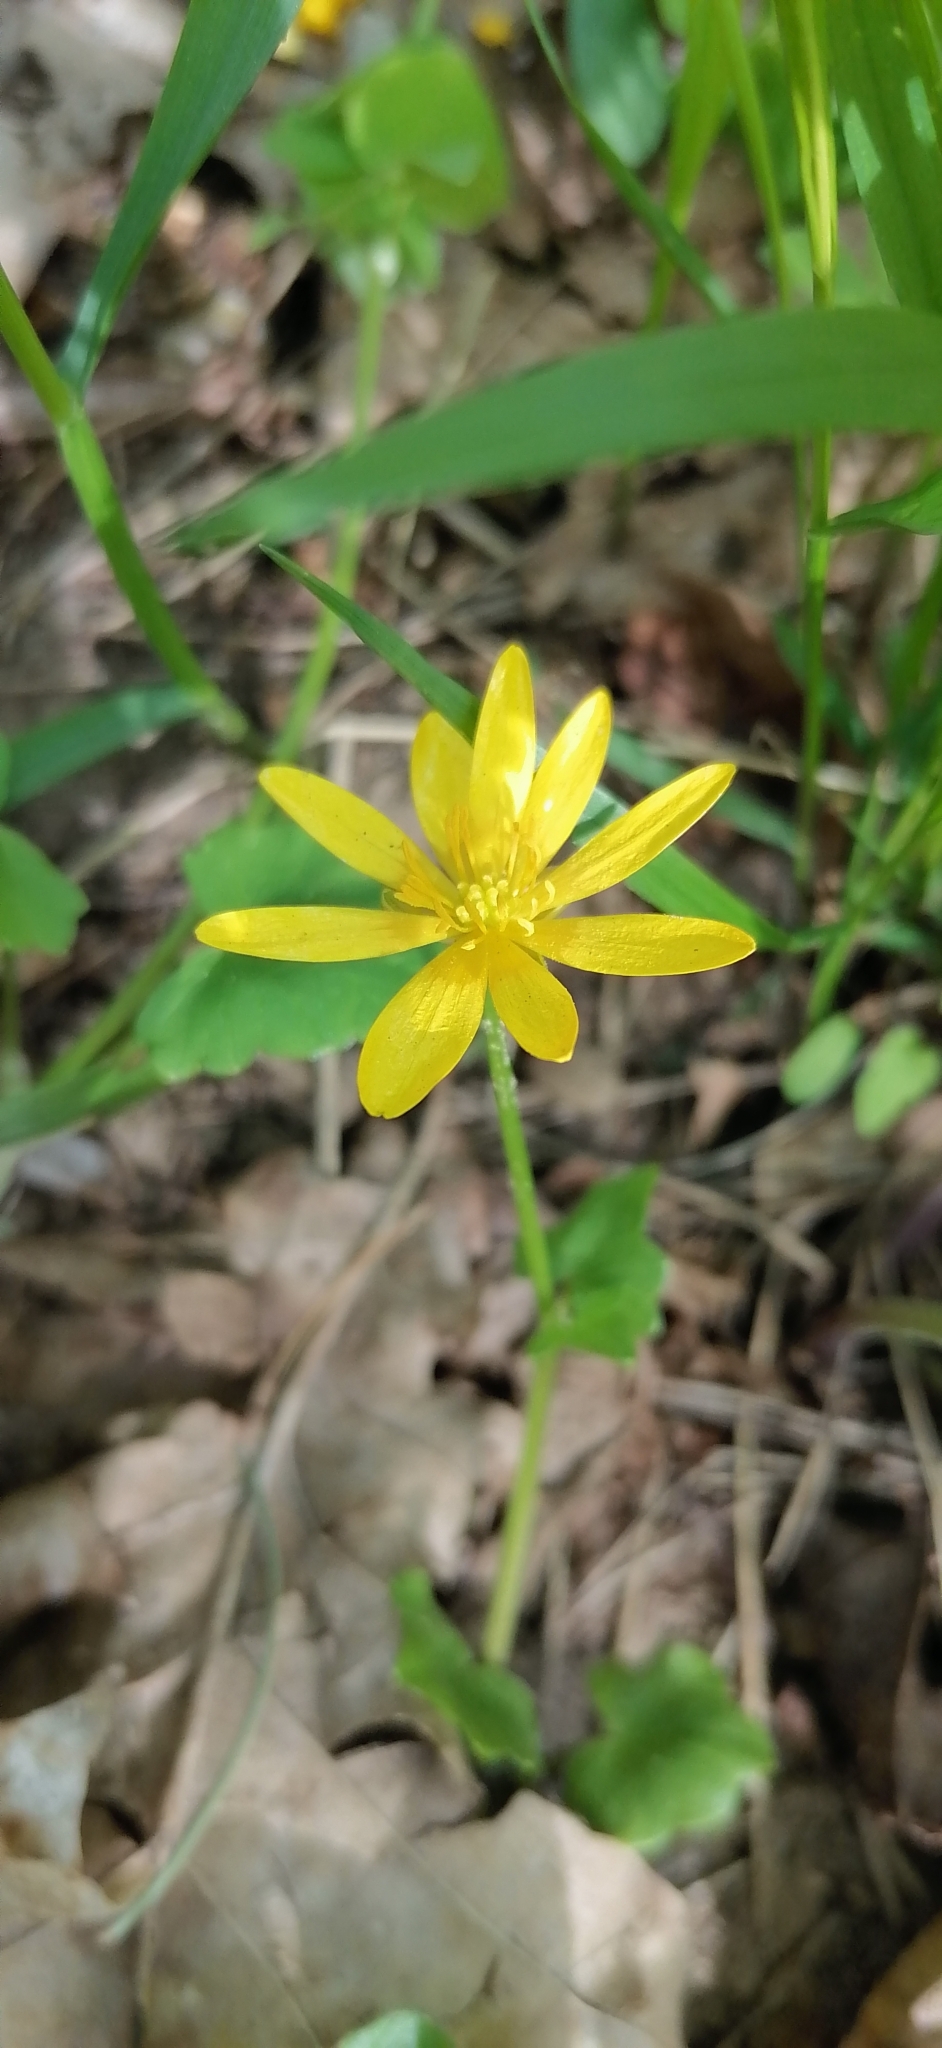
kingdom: Plantae
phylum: Tracheophyta
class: Magnoliopsida
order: Ranunculales
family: Ranunculaceae
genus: Ficaria
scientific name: Ficaria verna
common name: Lesser celandine
